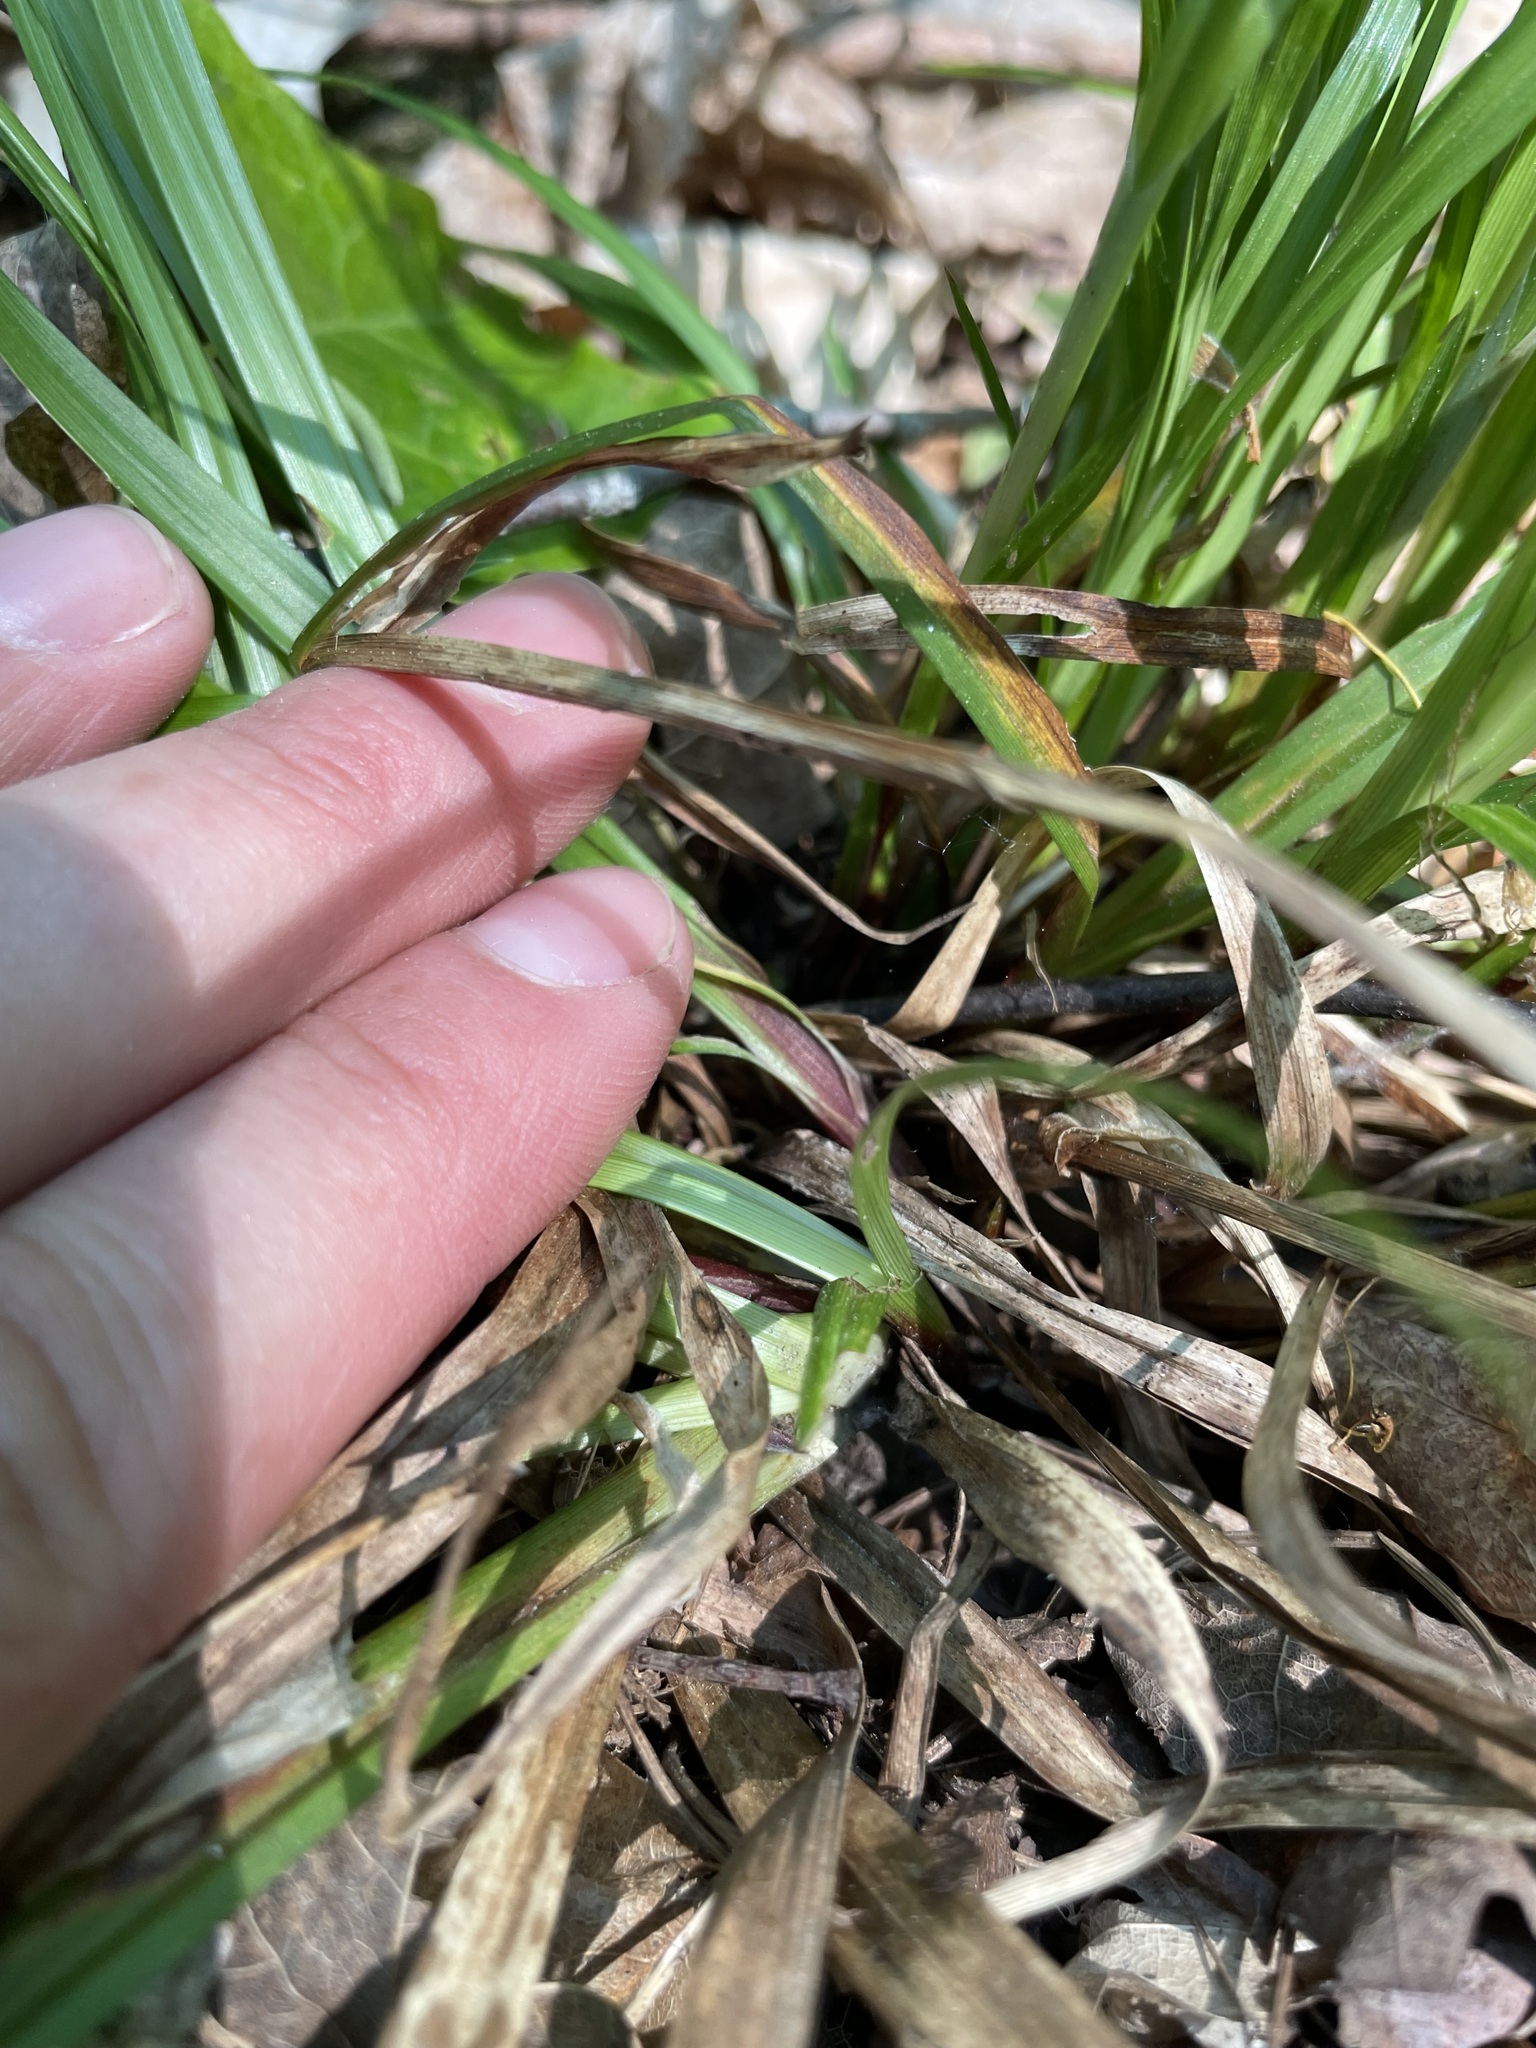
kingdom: Plantae
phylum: Tracheophyta
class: Liliopsida
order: Poales
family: Cyperaceae
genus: Carex
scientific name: Carex arctata
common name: Black sedge
